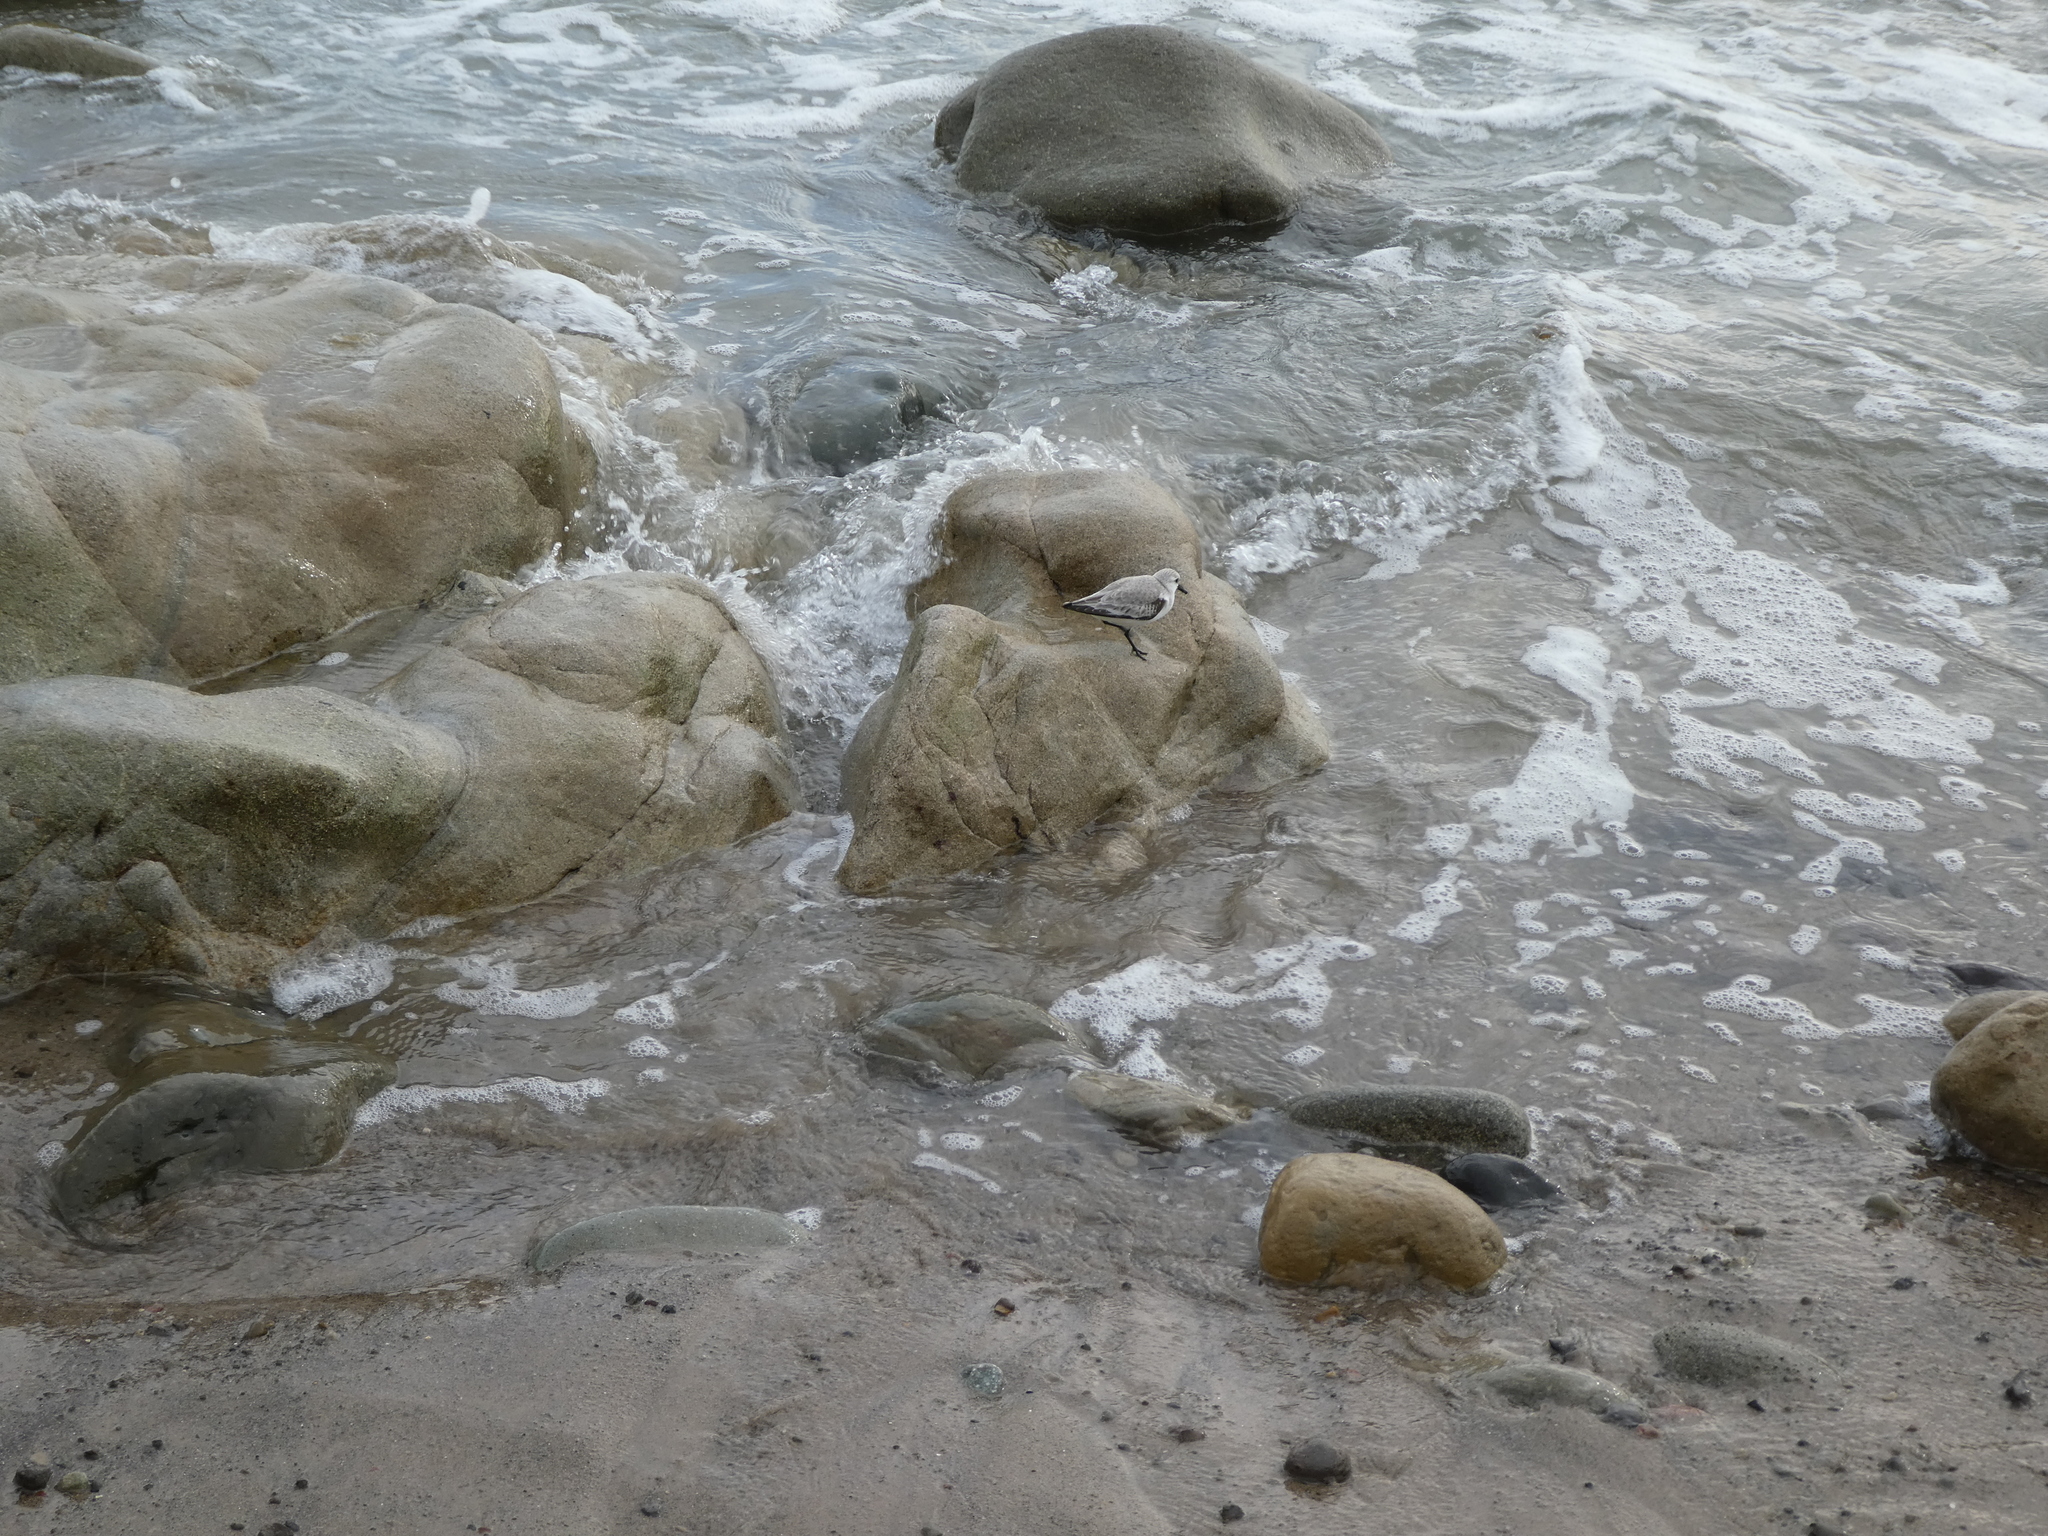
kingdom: Animalia
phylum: Chordata
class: Aves
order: Charadriiformes
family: Scolopacidae
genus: Calidris
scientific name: Calidris alba
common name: Sanderling
